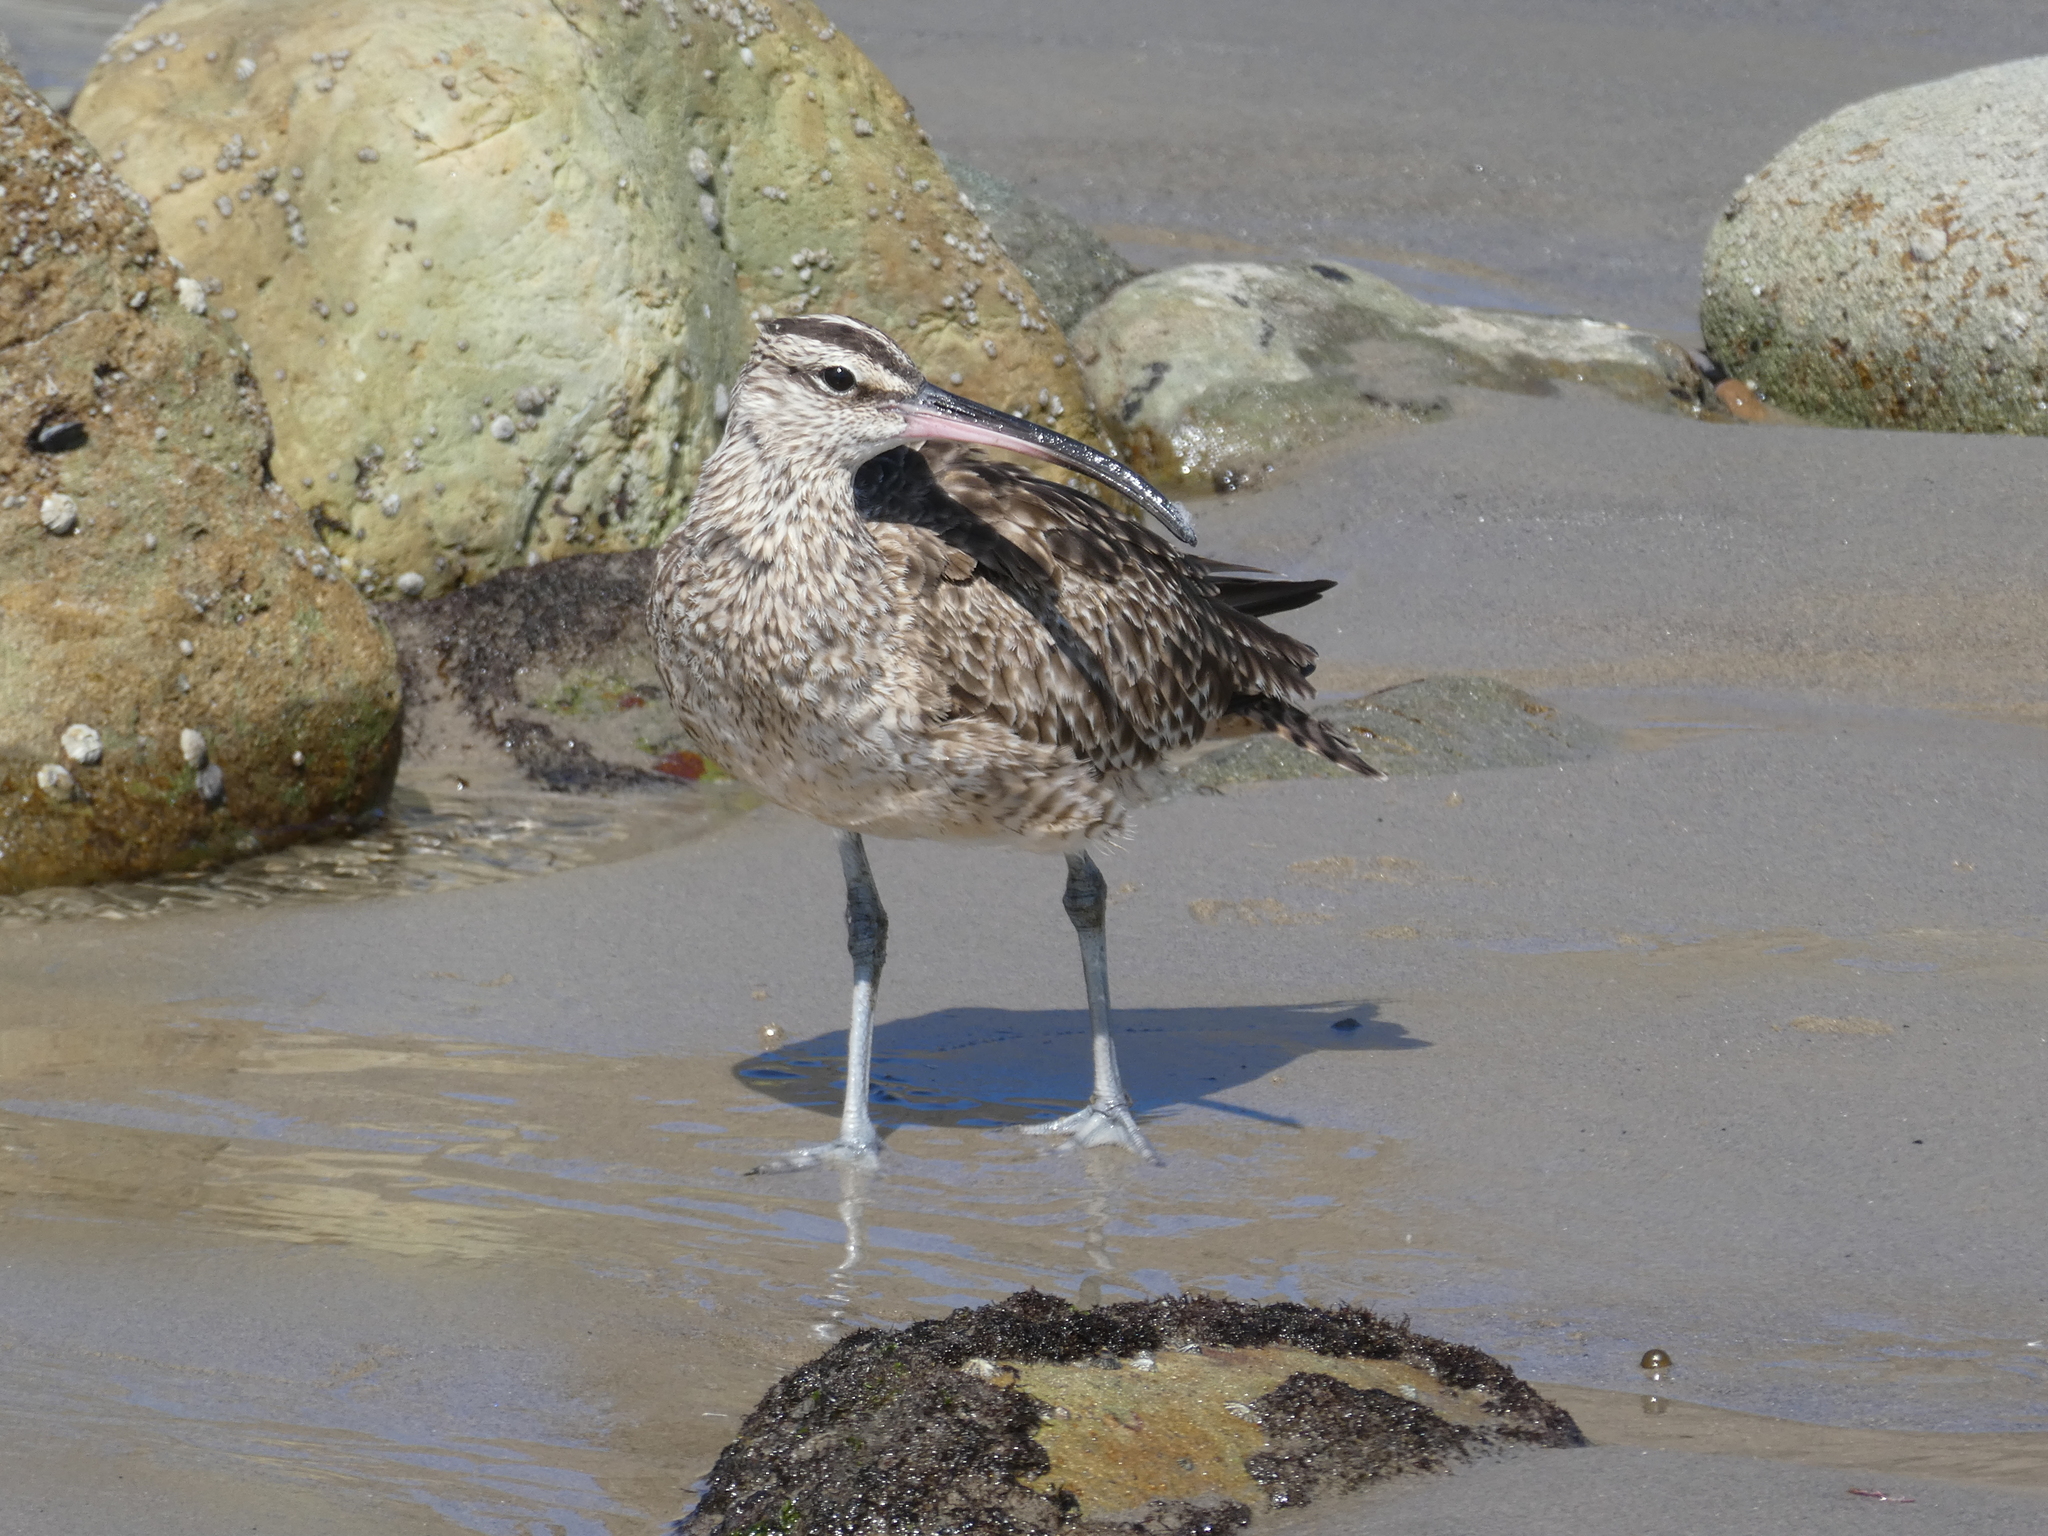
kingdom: Animalia
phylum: Chordata
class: Aves
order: Charadriiformes
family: Scolopacidae
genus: Numenius
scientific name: Numenius phaeopus
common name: Whimbrel
